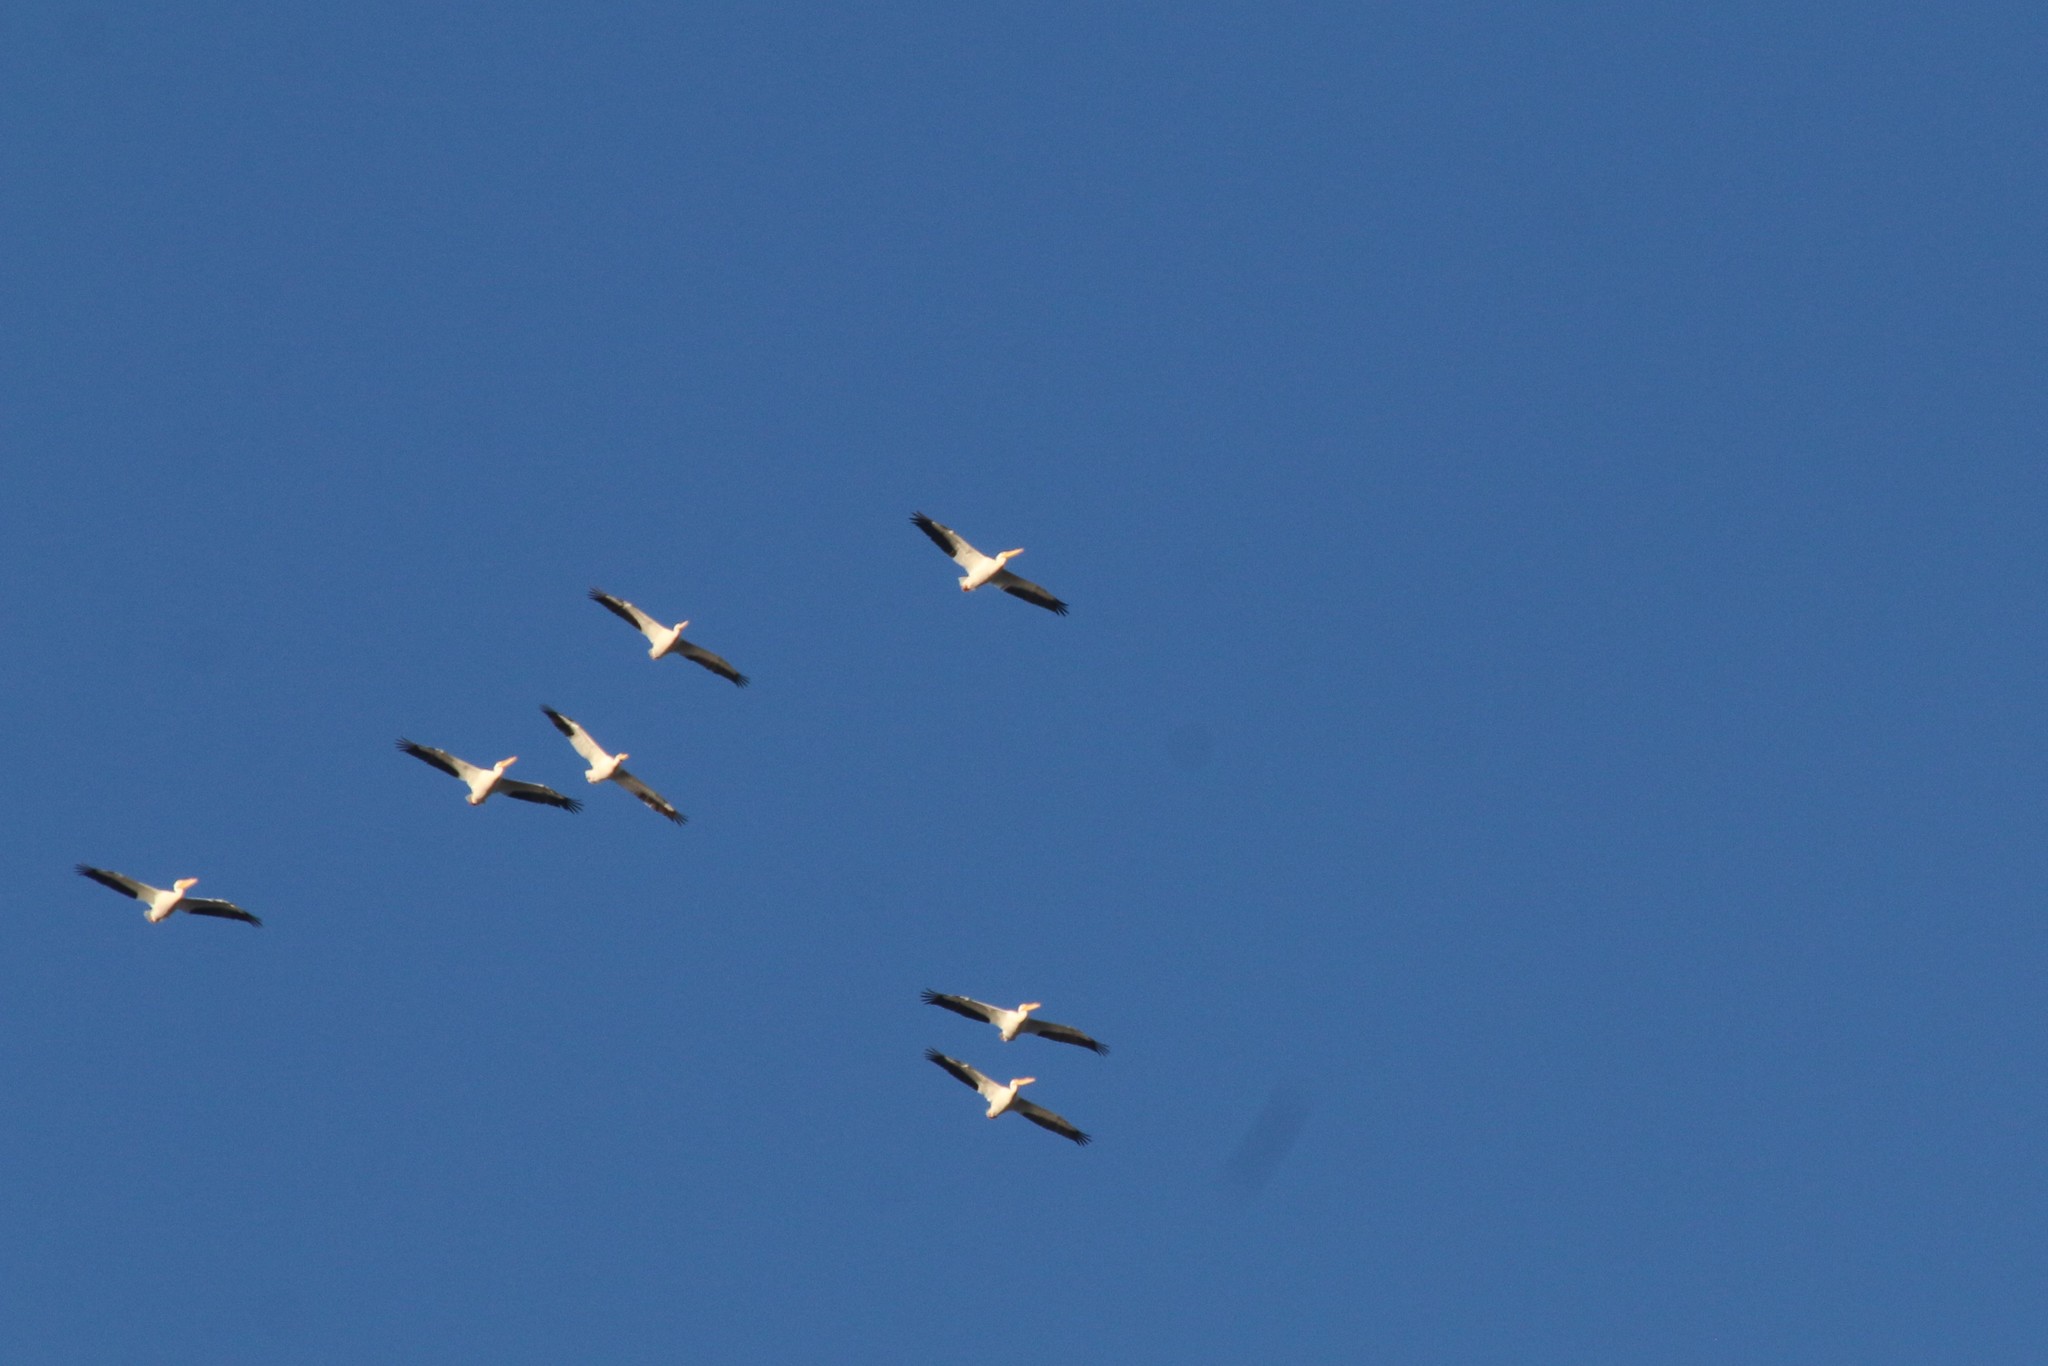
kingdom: Animalia
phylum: Chordata
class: Aves
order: Pelecaniformes
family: Pelecanidae
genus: Pelecanus
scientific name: Pelecanus erythrorhynchos
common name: American white pelican
